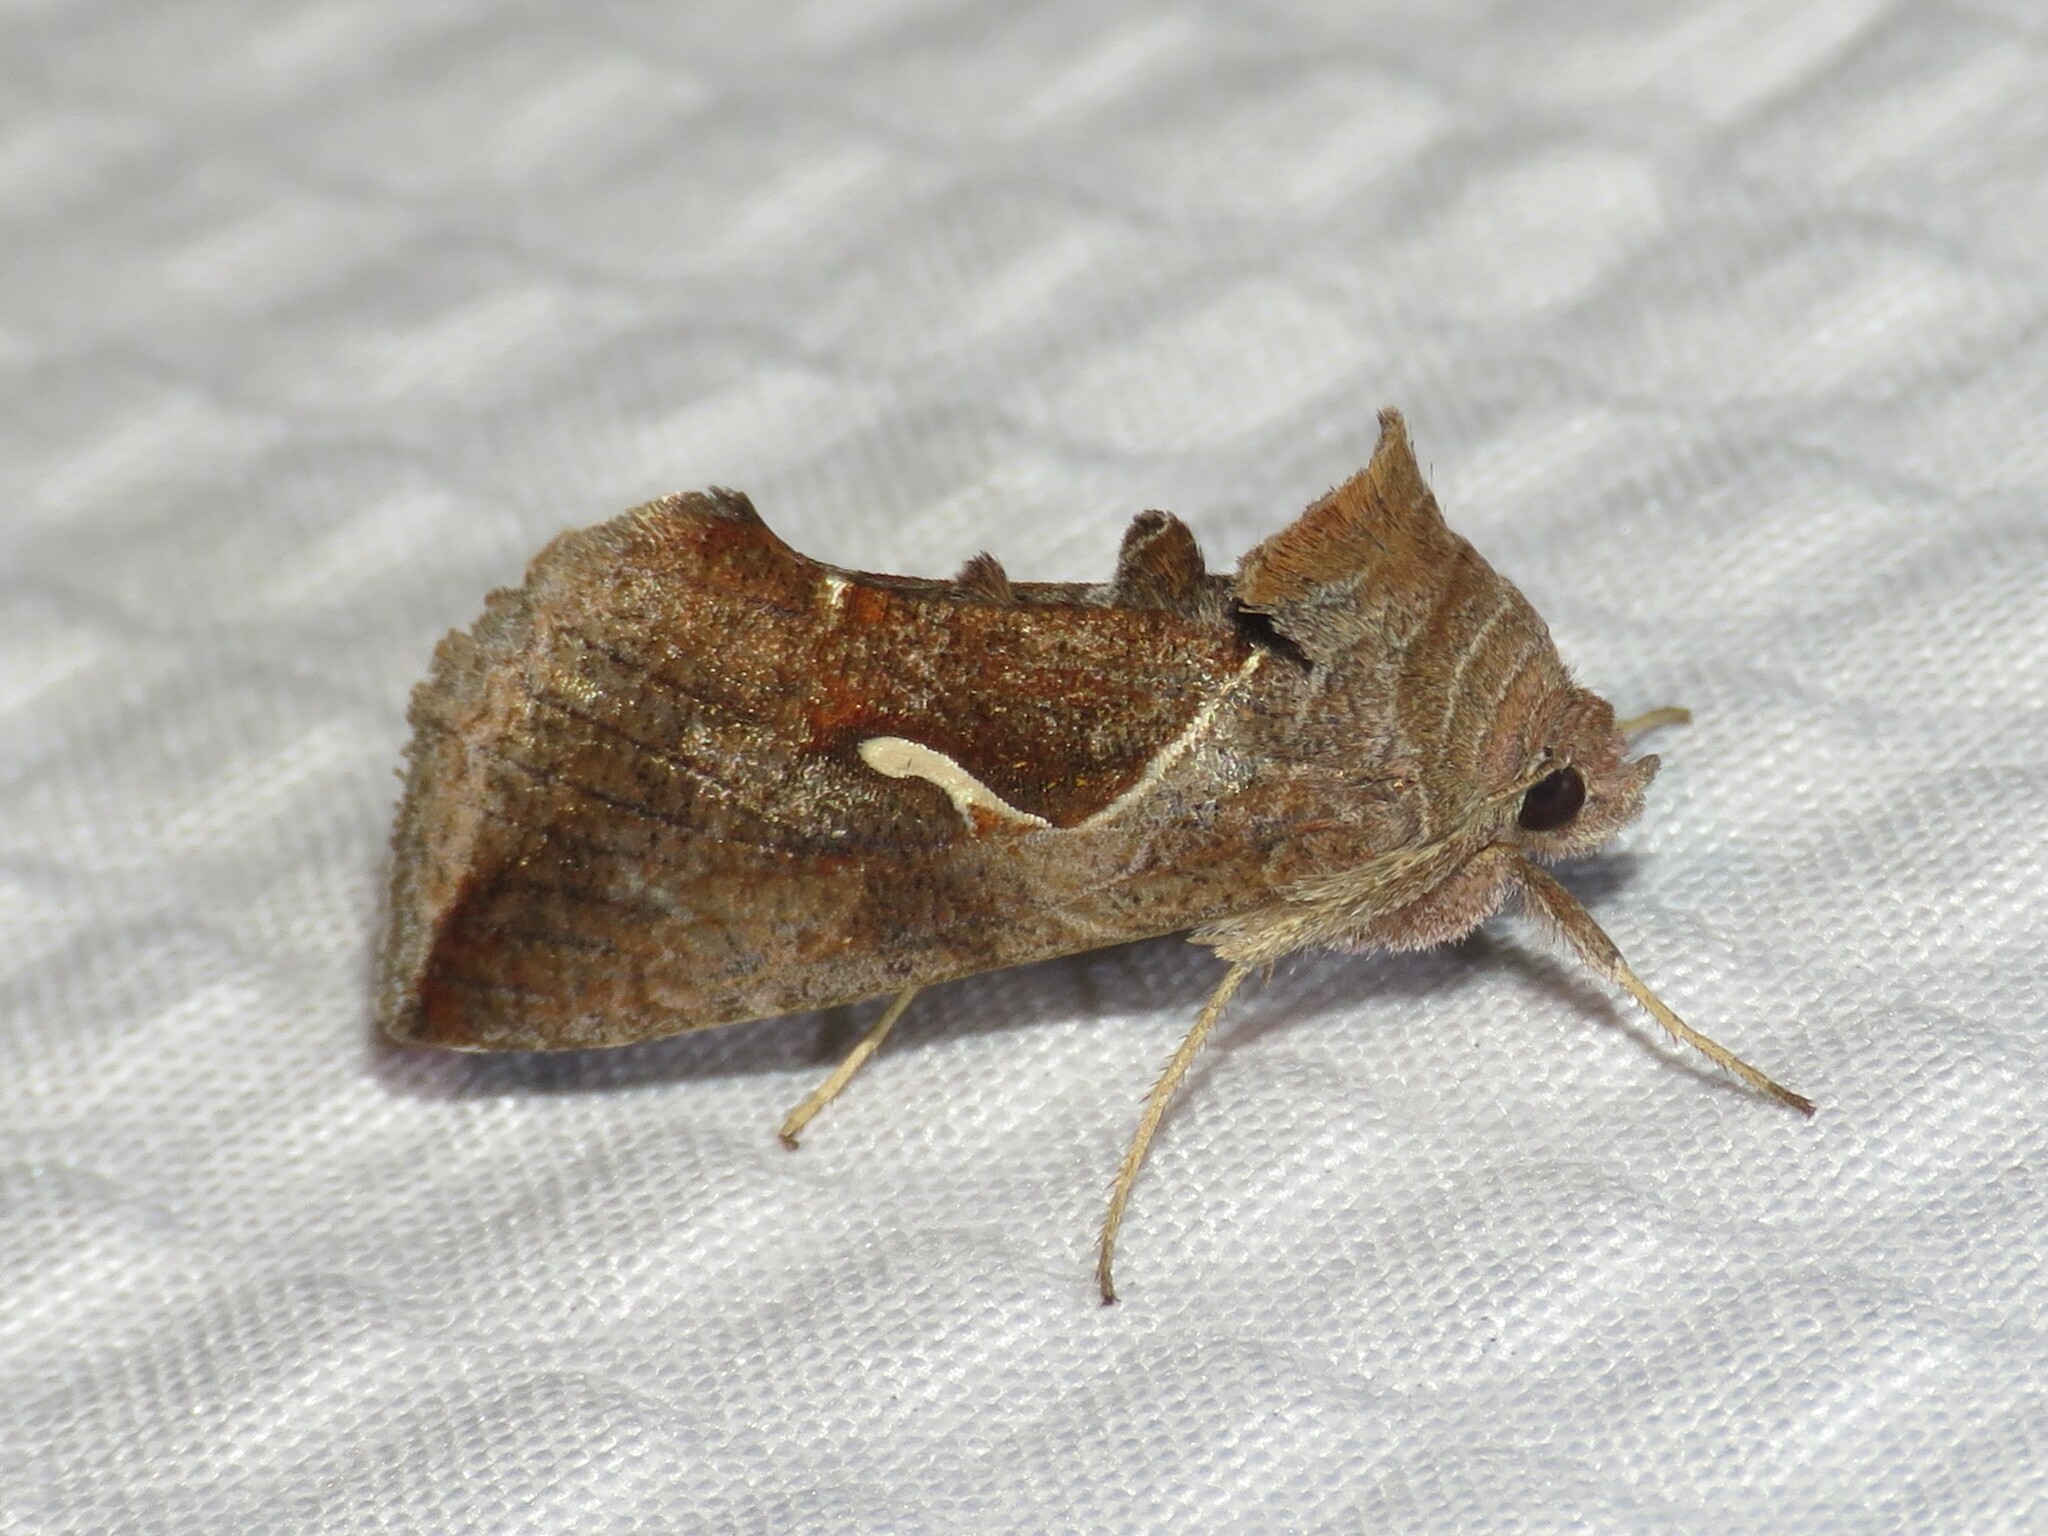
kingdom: Animalia
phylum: Arthropoda
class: Insecta
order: Lepidoptera
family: Noctuidae
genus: Anagrapha
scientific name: Anagrapha falcifera
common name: Celery looper
